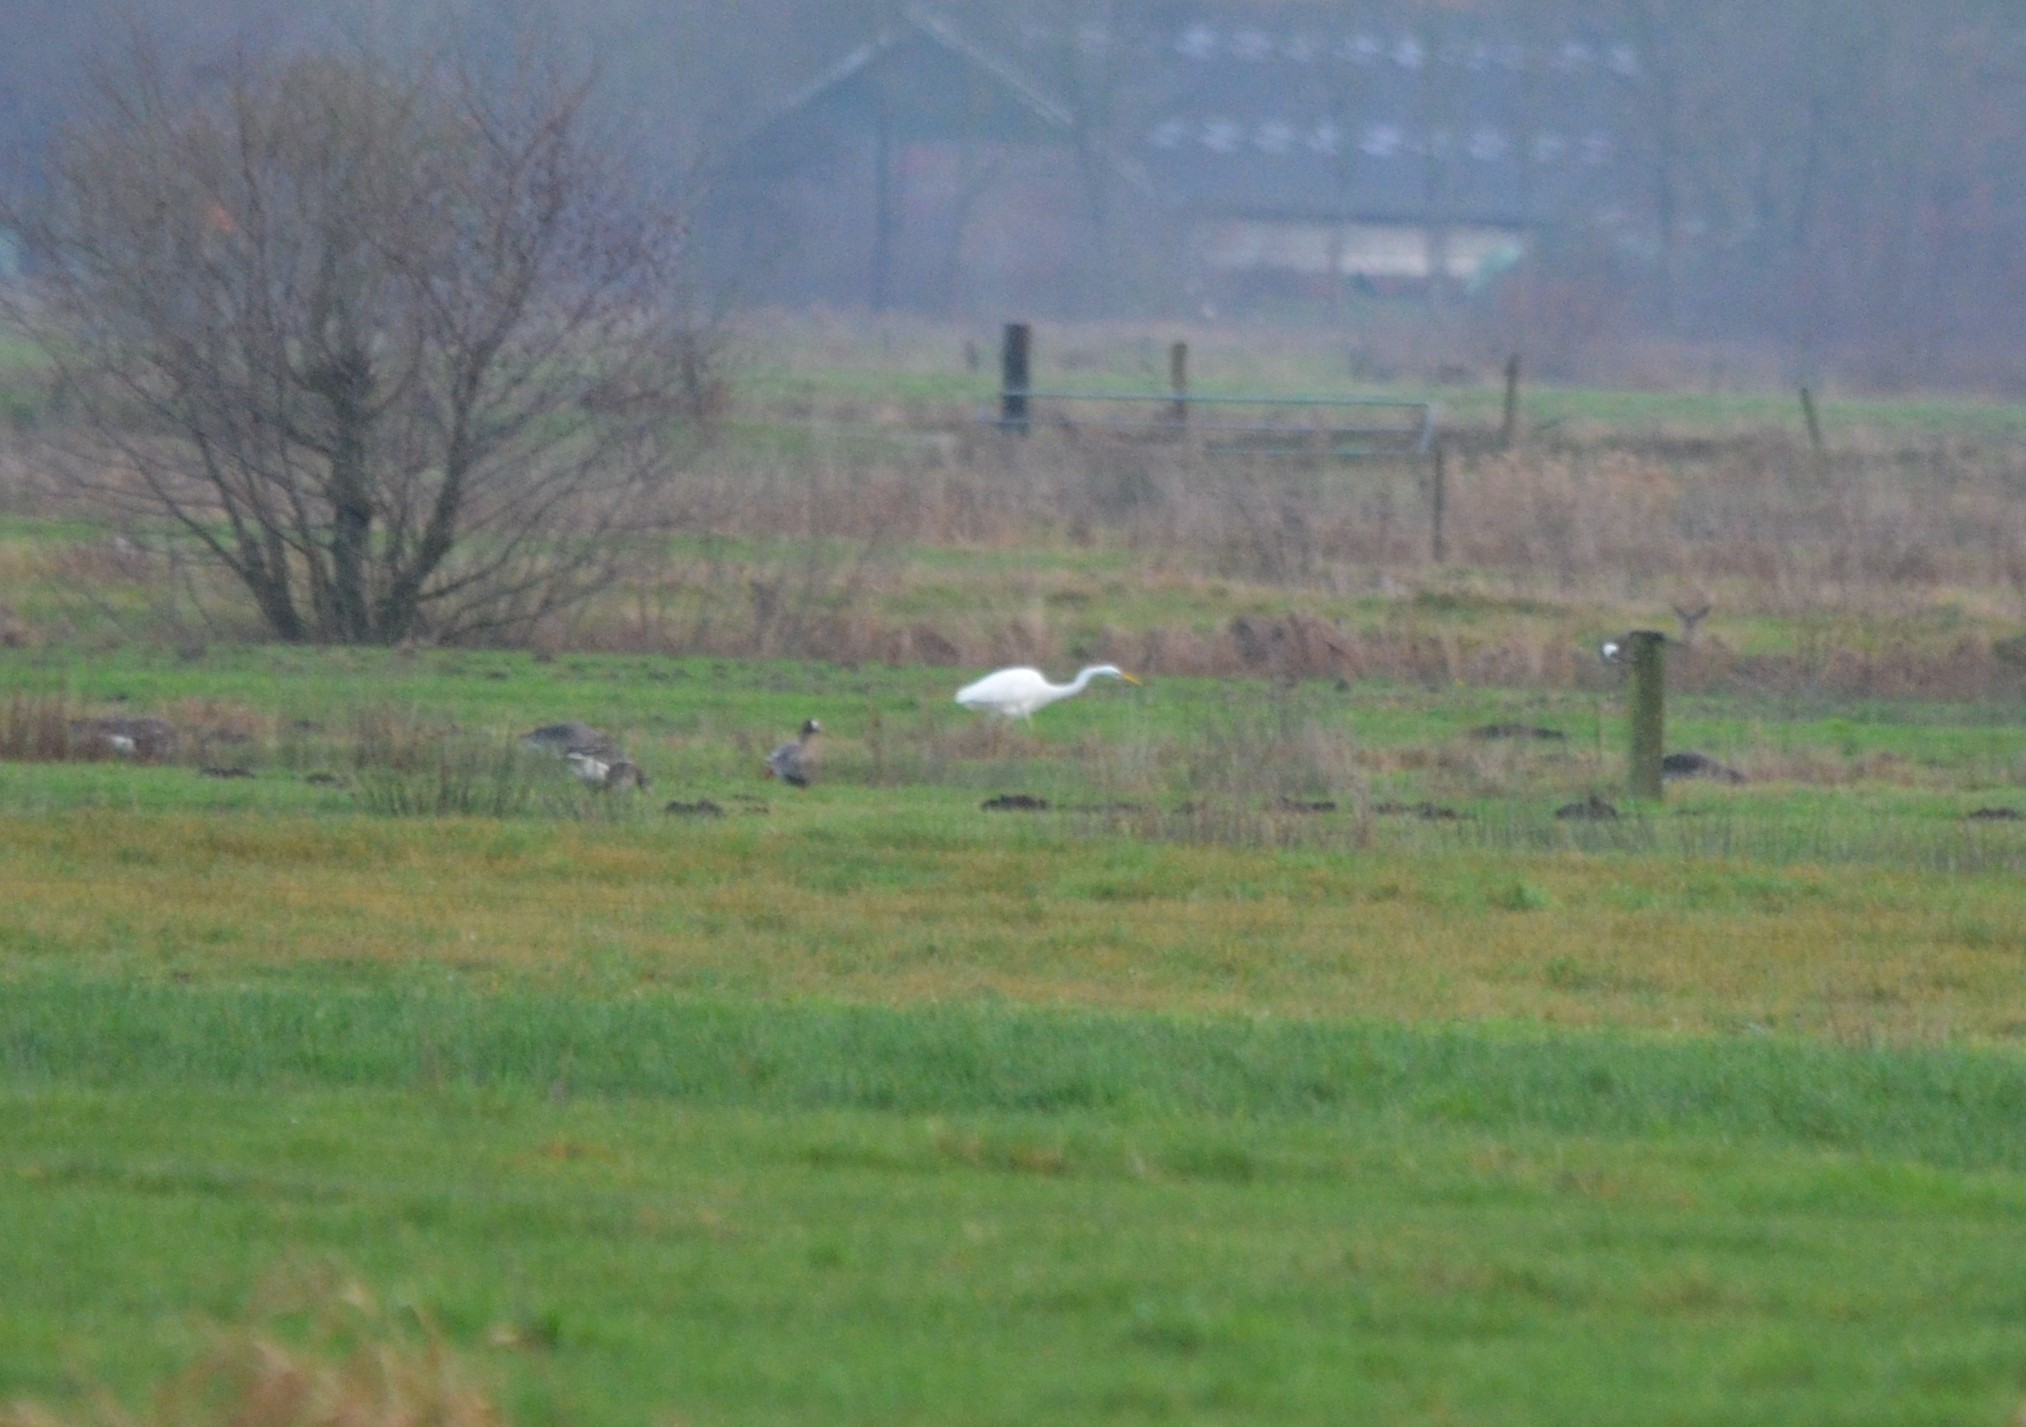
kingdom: Animalia
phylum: Chordata
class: Aves
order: Pelecaniformes
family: Ardeidae
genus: Ardea
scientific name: Ardea alba
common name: Great egret
